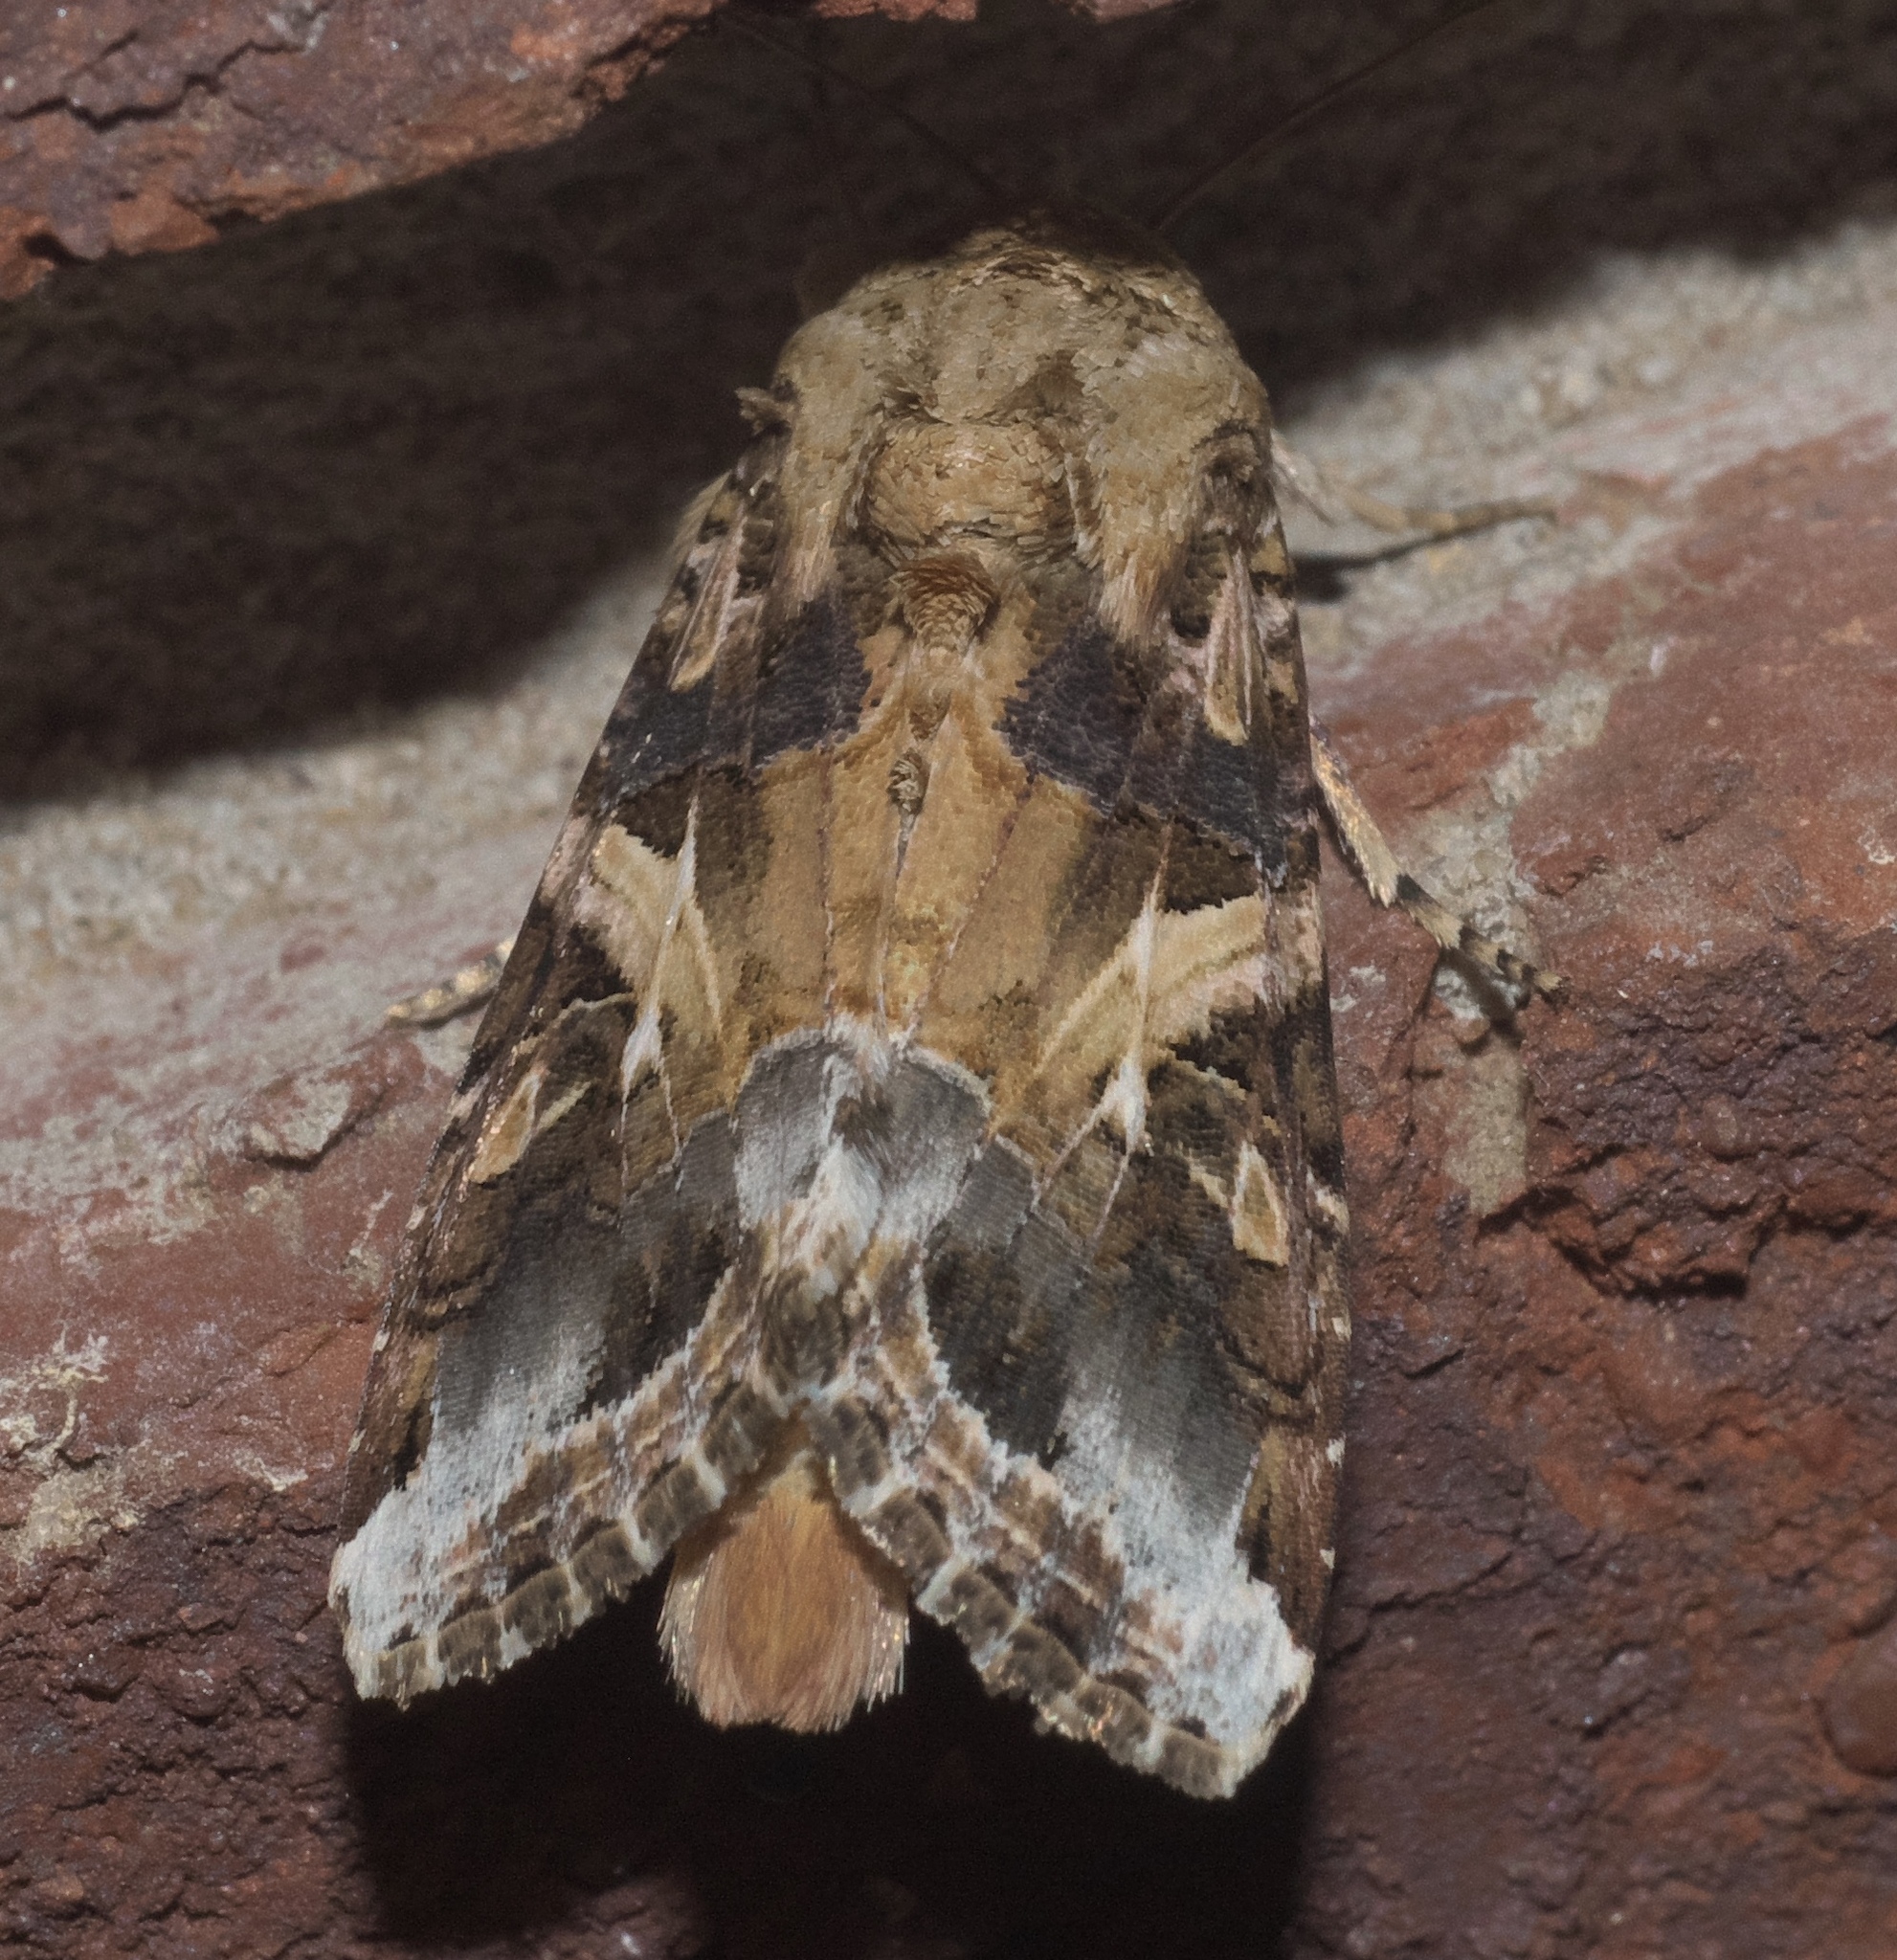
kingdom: Animalia
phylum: Arthropoda
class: Insecta
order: Lepidoptera
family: Noctuidae
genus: Spodoptera
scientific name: Spodoptera ornithogalli
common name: Yellow-striped armyworm
